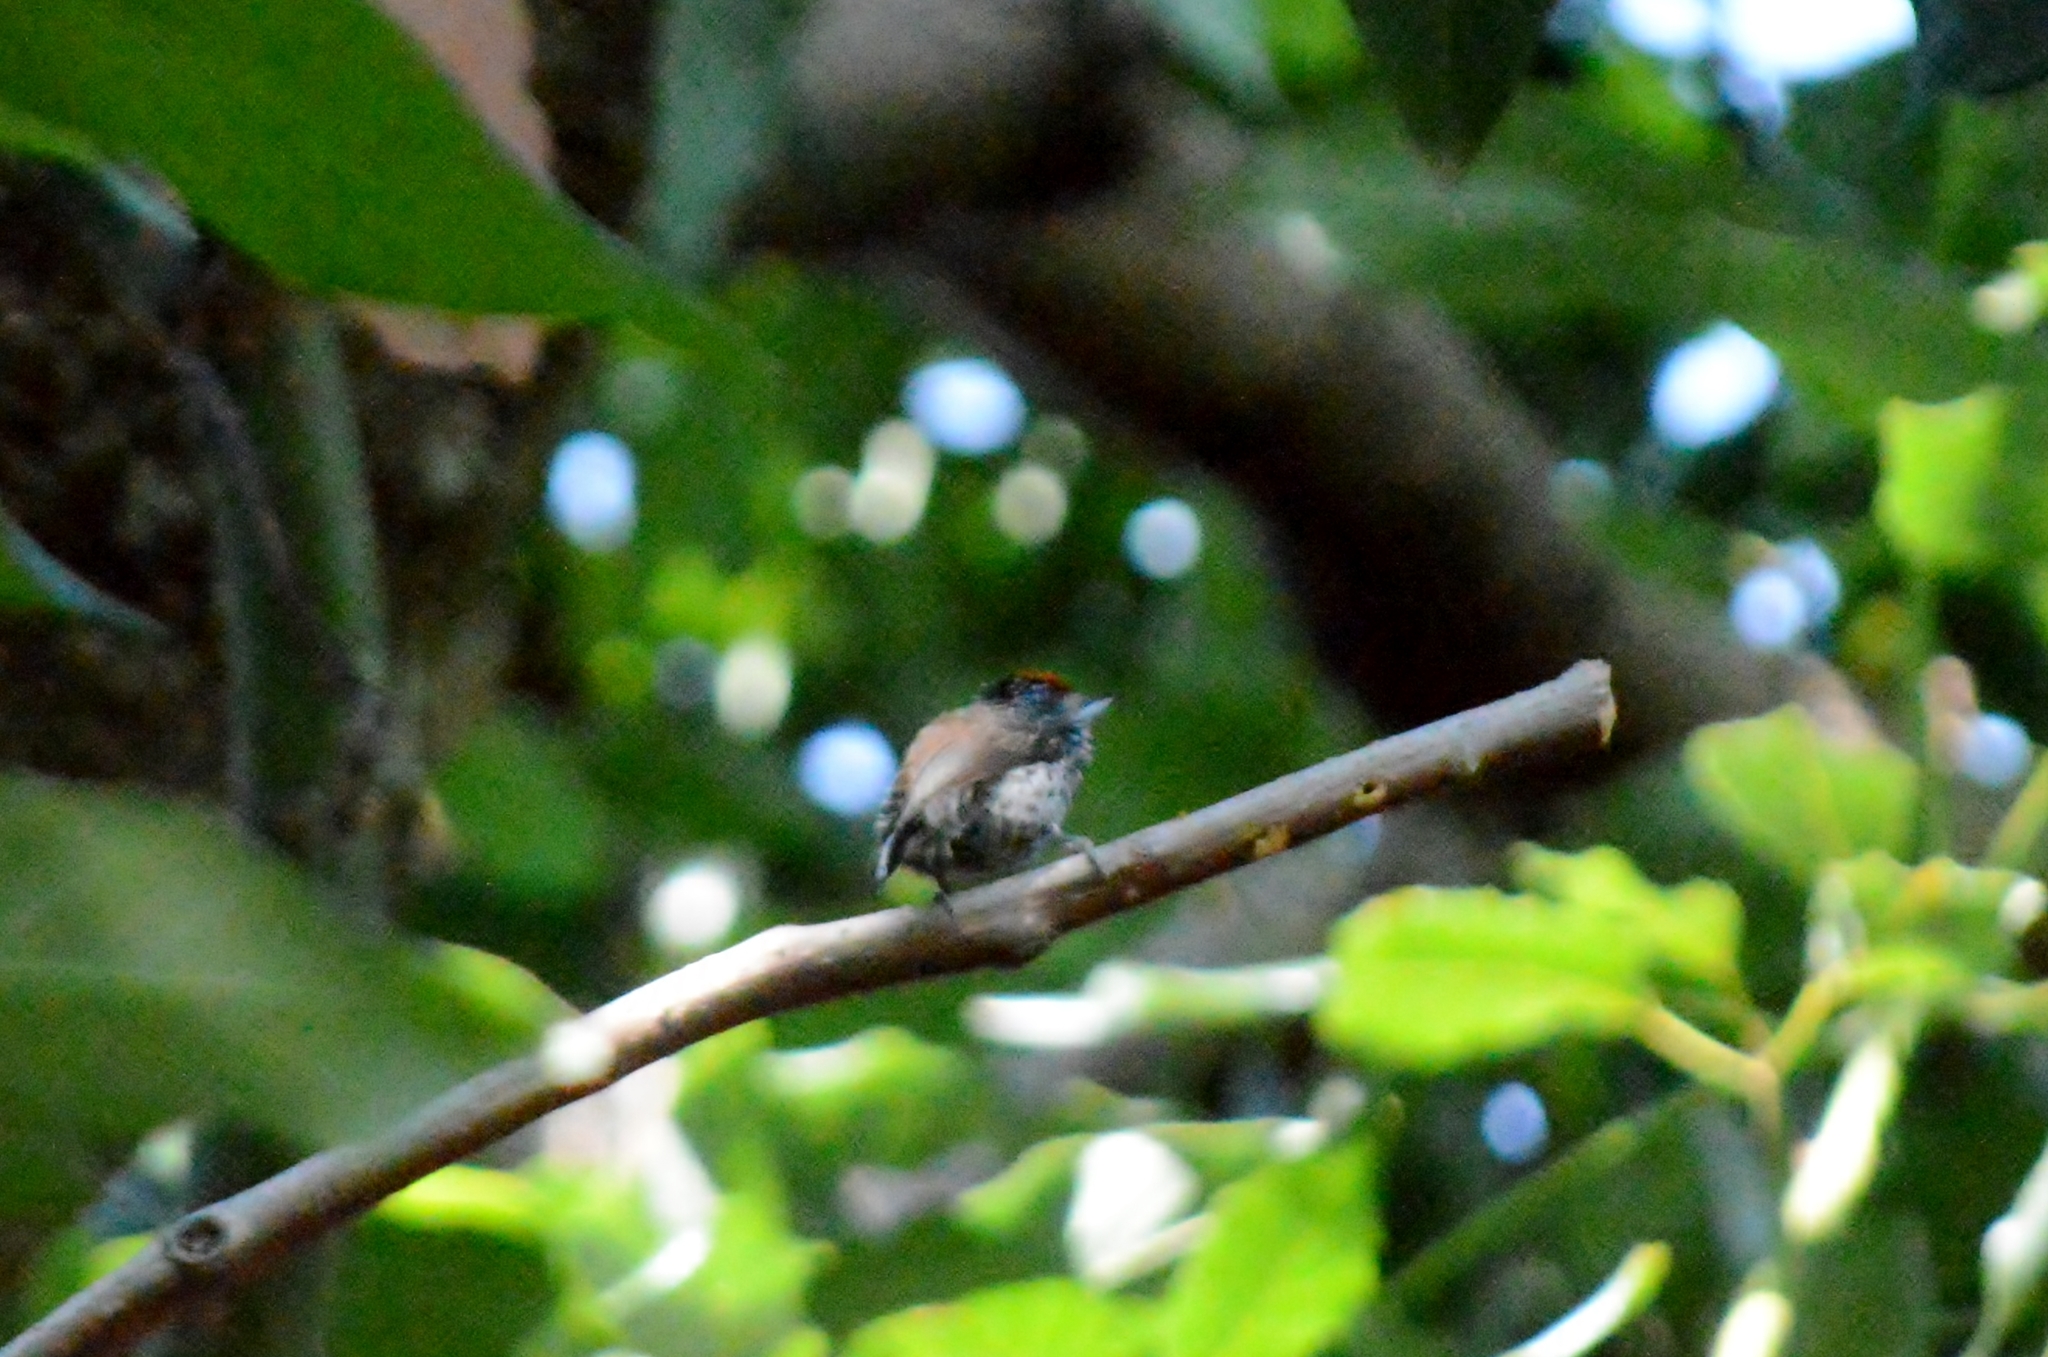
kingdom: Animalia
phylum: Chordata
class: Aves
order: Piciformes
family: Picidae
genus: Picumnus
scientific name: Picumnus albosquamatus
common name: White-wedged piculet
